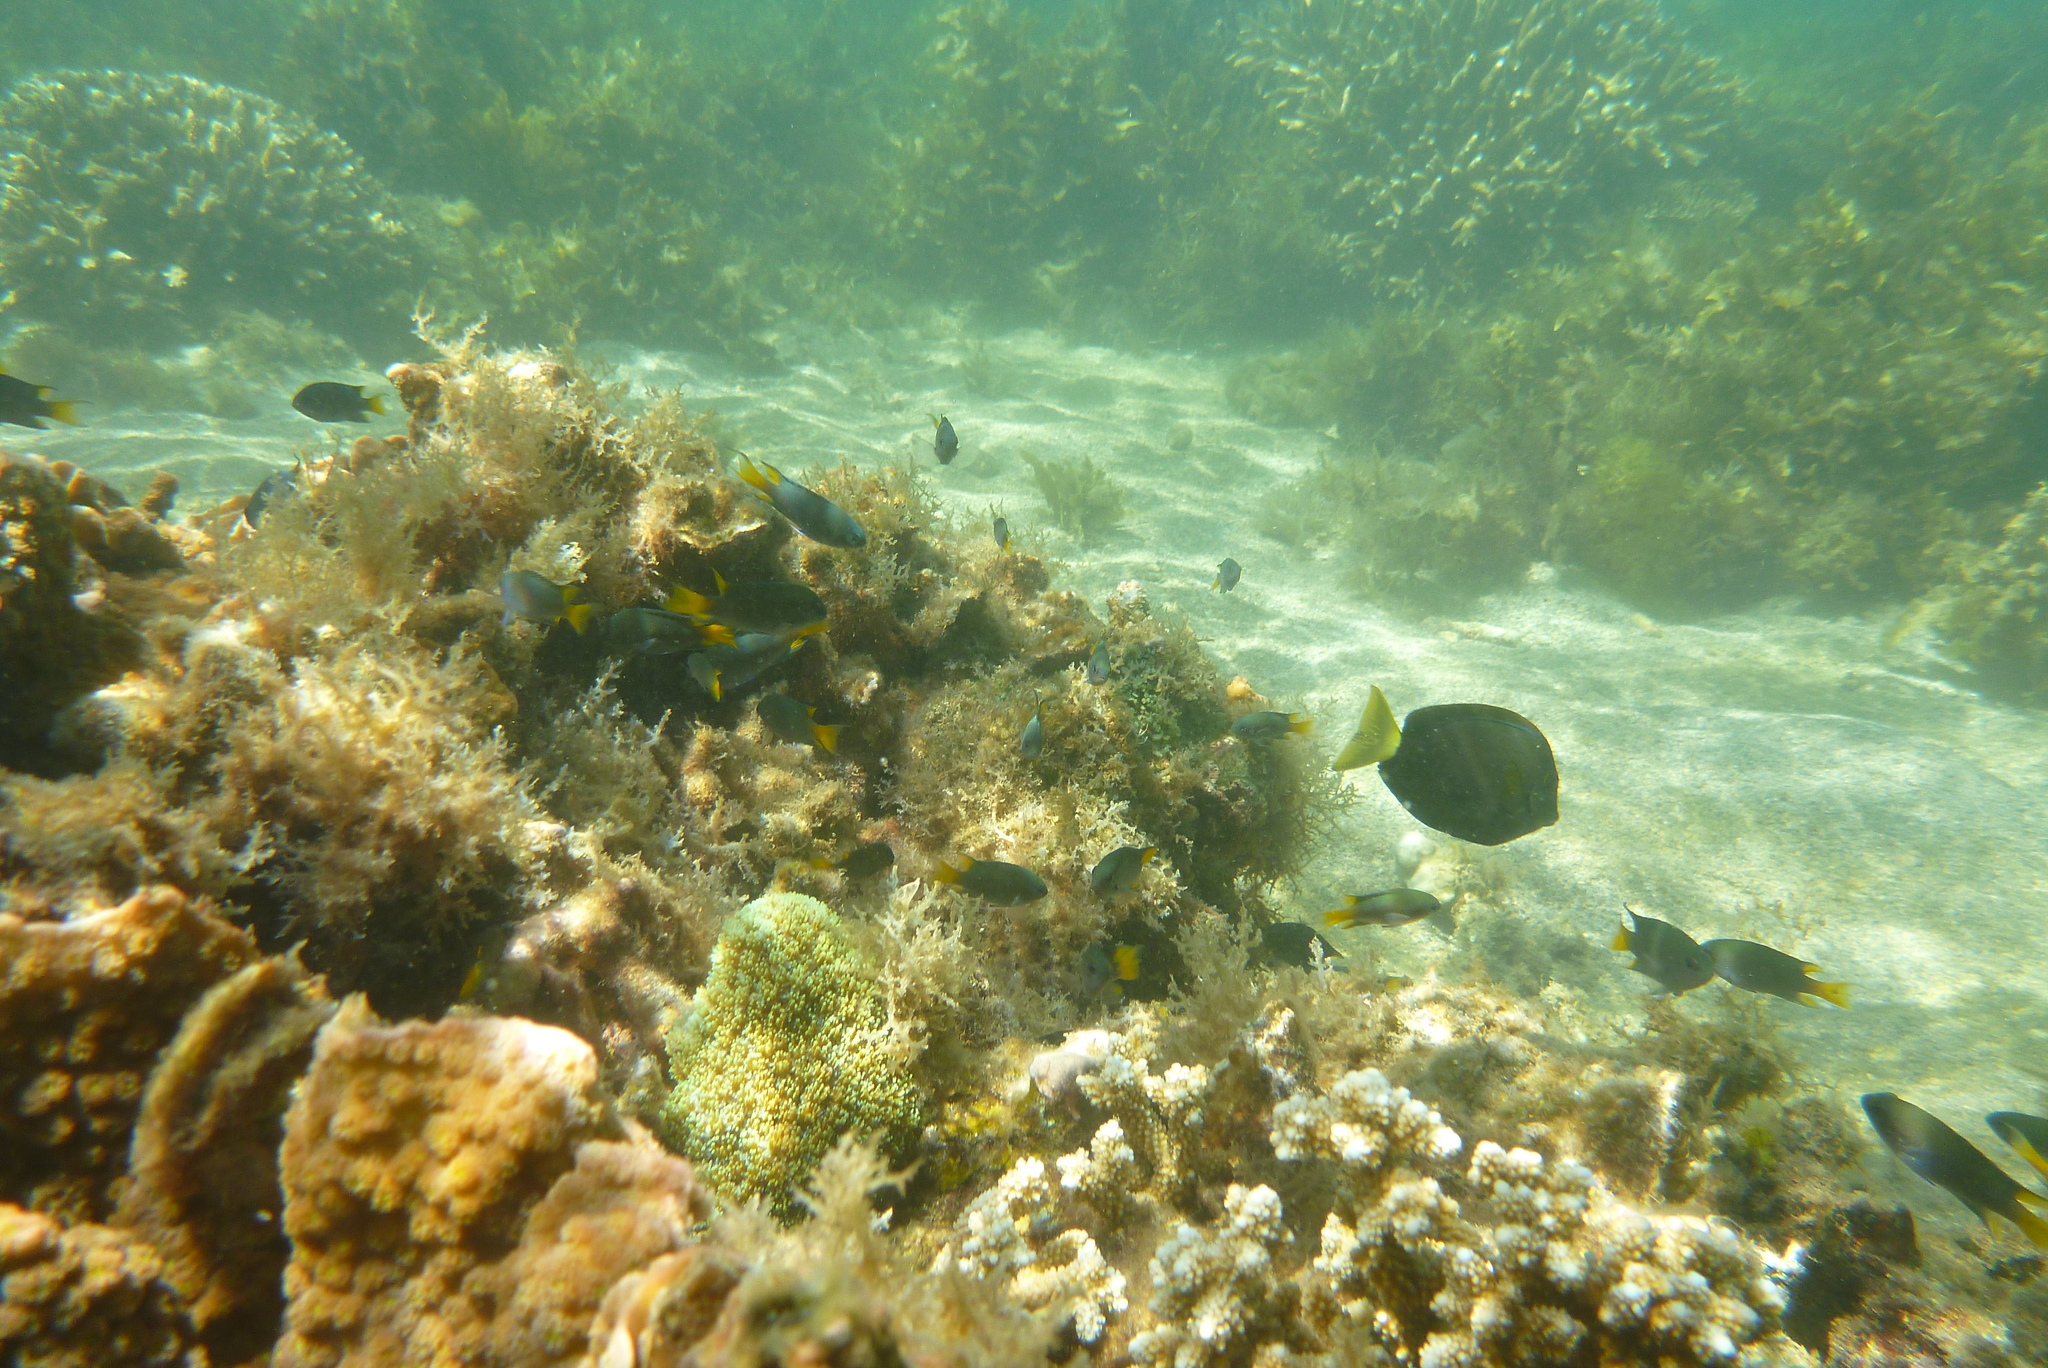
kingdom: Animalia
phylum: Chordata
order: Perciformes
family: Pomacentridae
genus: Neopomacentrus
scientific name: Neopomacentrus bankieri
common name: Chinese damsel
